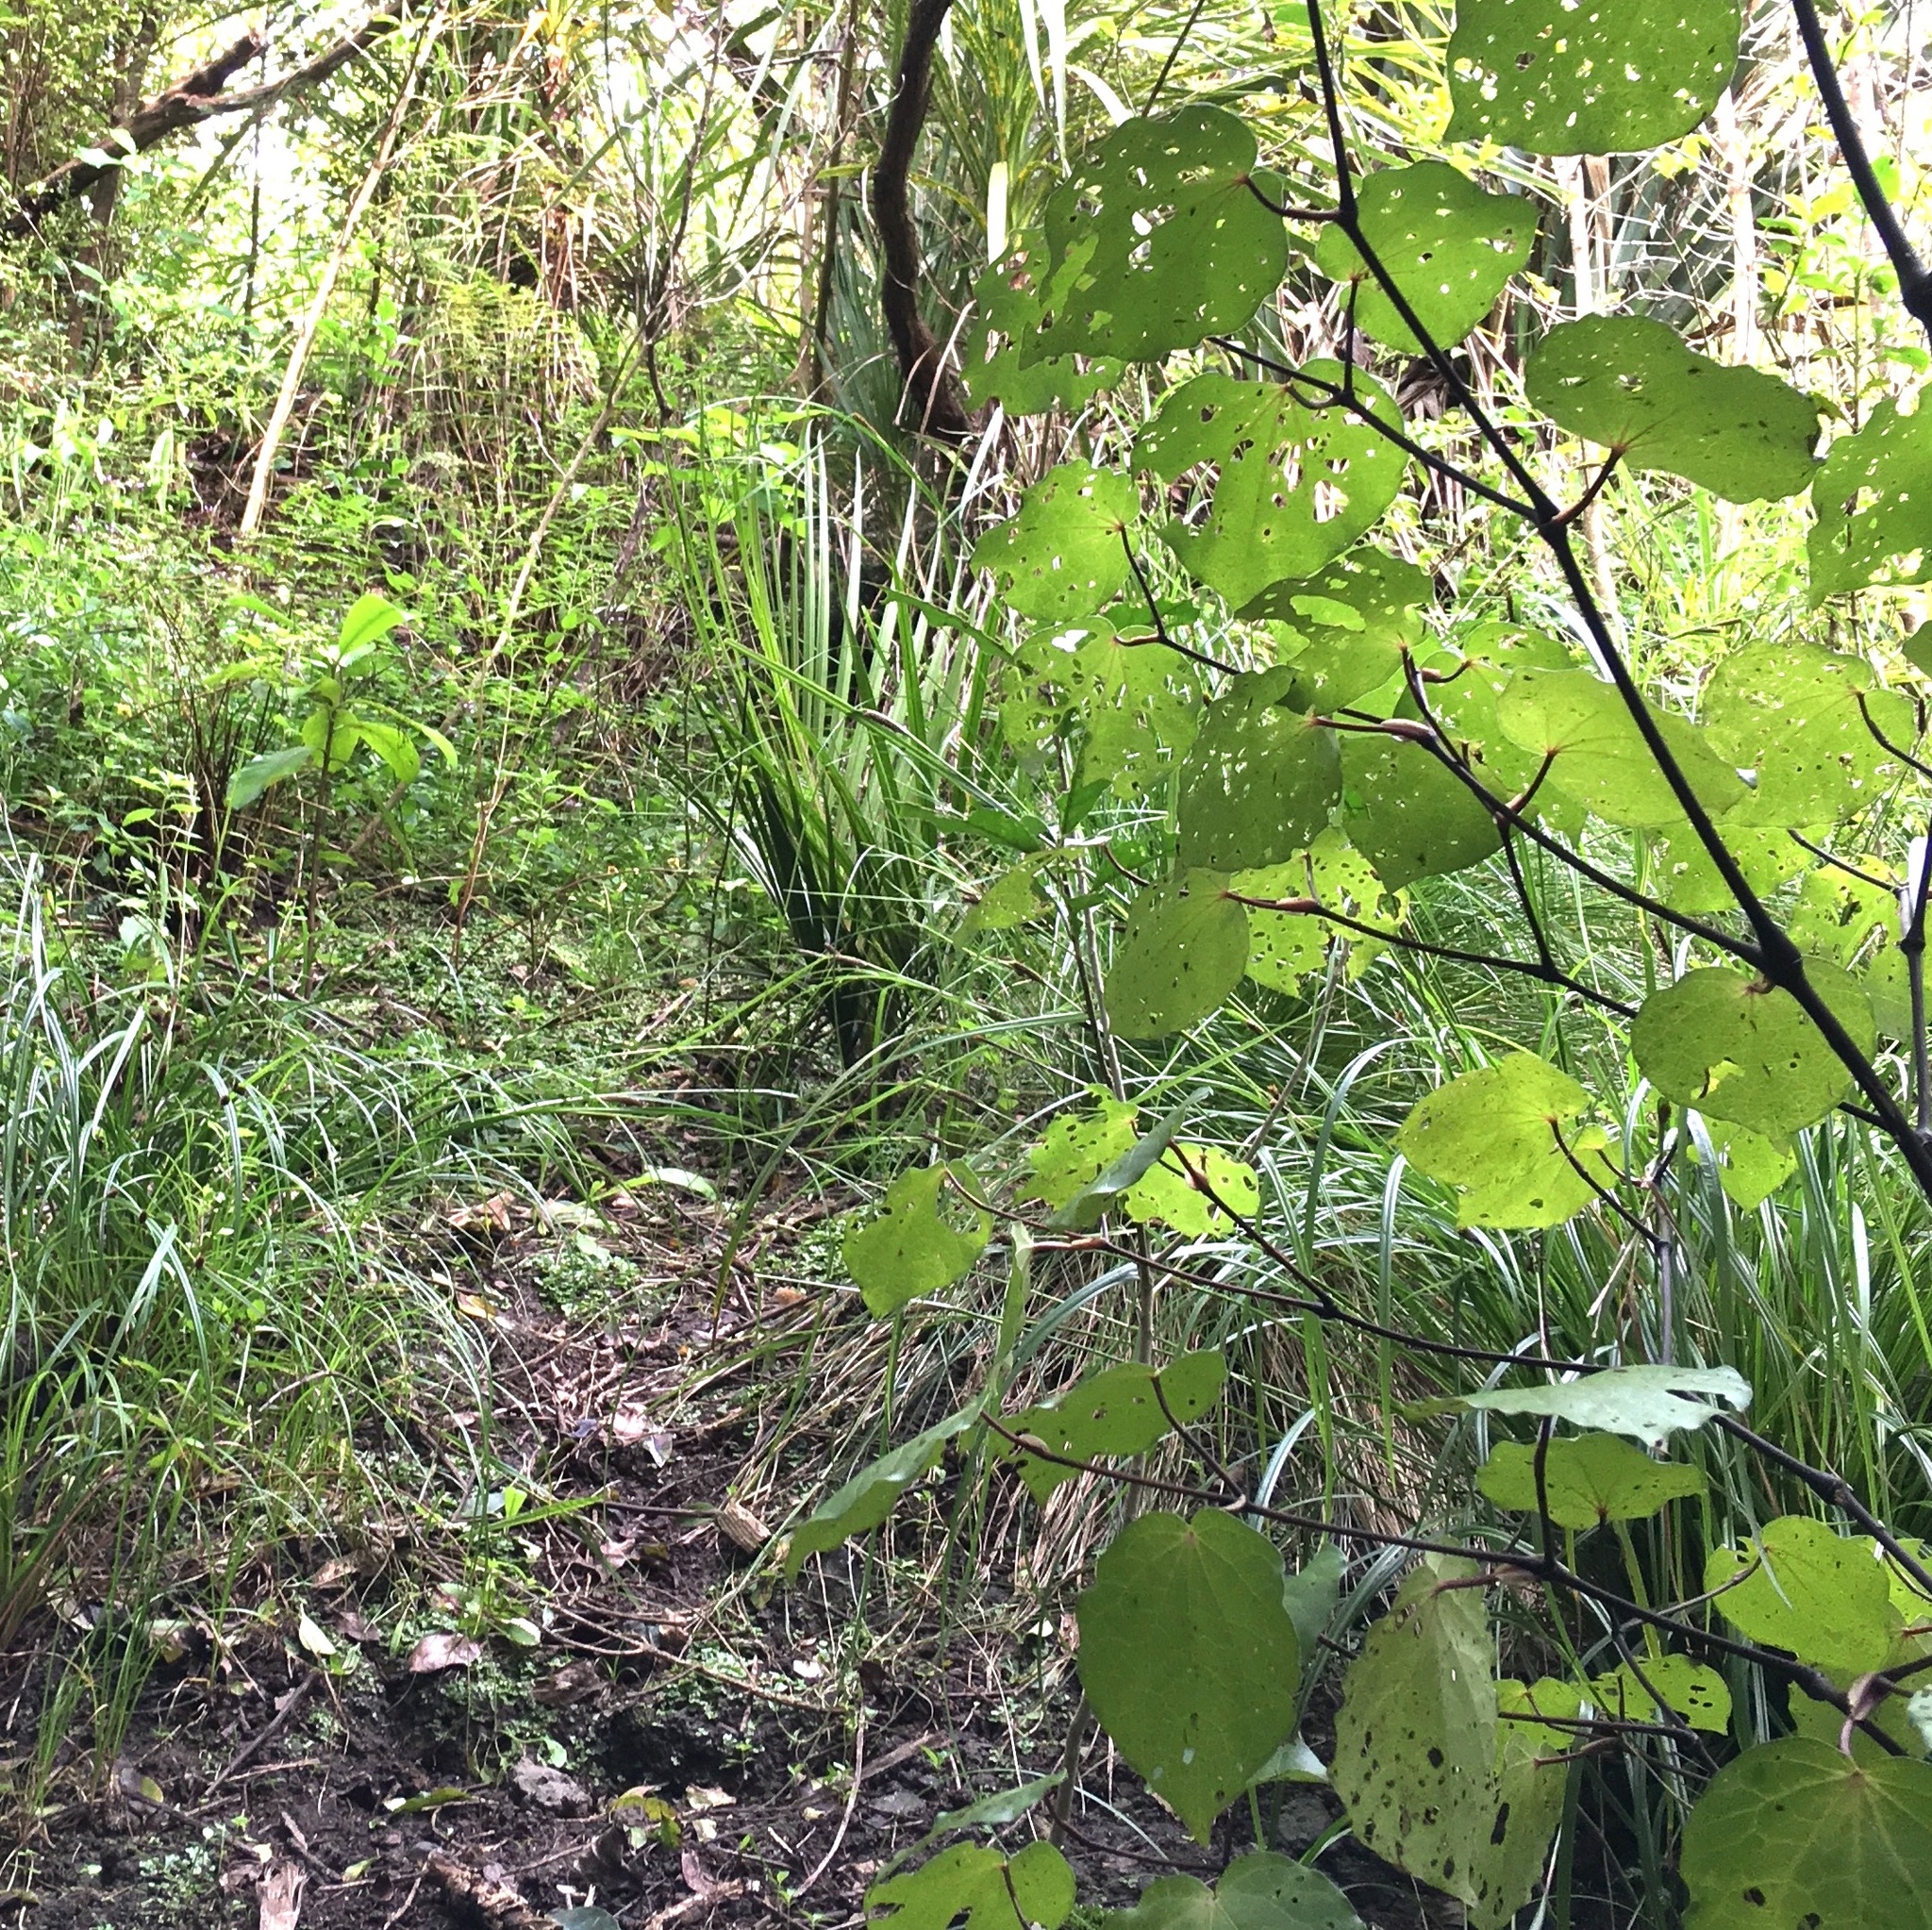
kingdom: Plantae
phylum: Tracheophyta
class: Liliopsida
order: Arecales
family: Arecaceae
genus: Rhopalostylis
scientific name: Rhopalostylis sapida
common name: Feather-duster palm
